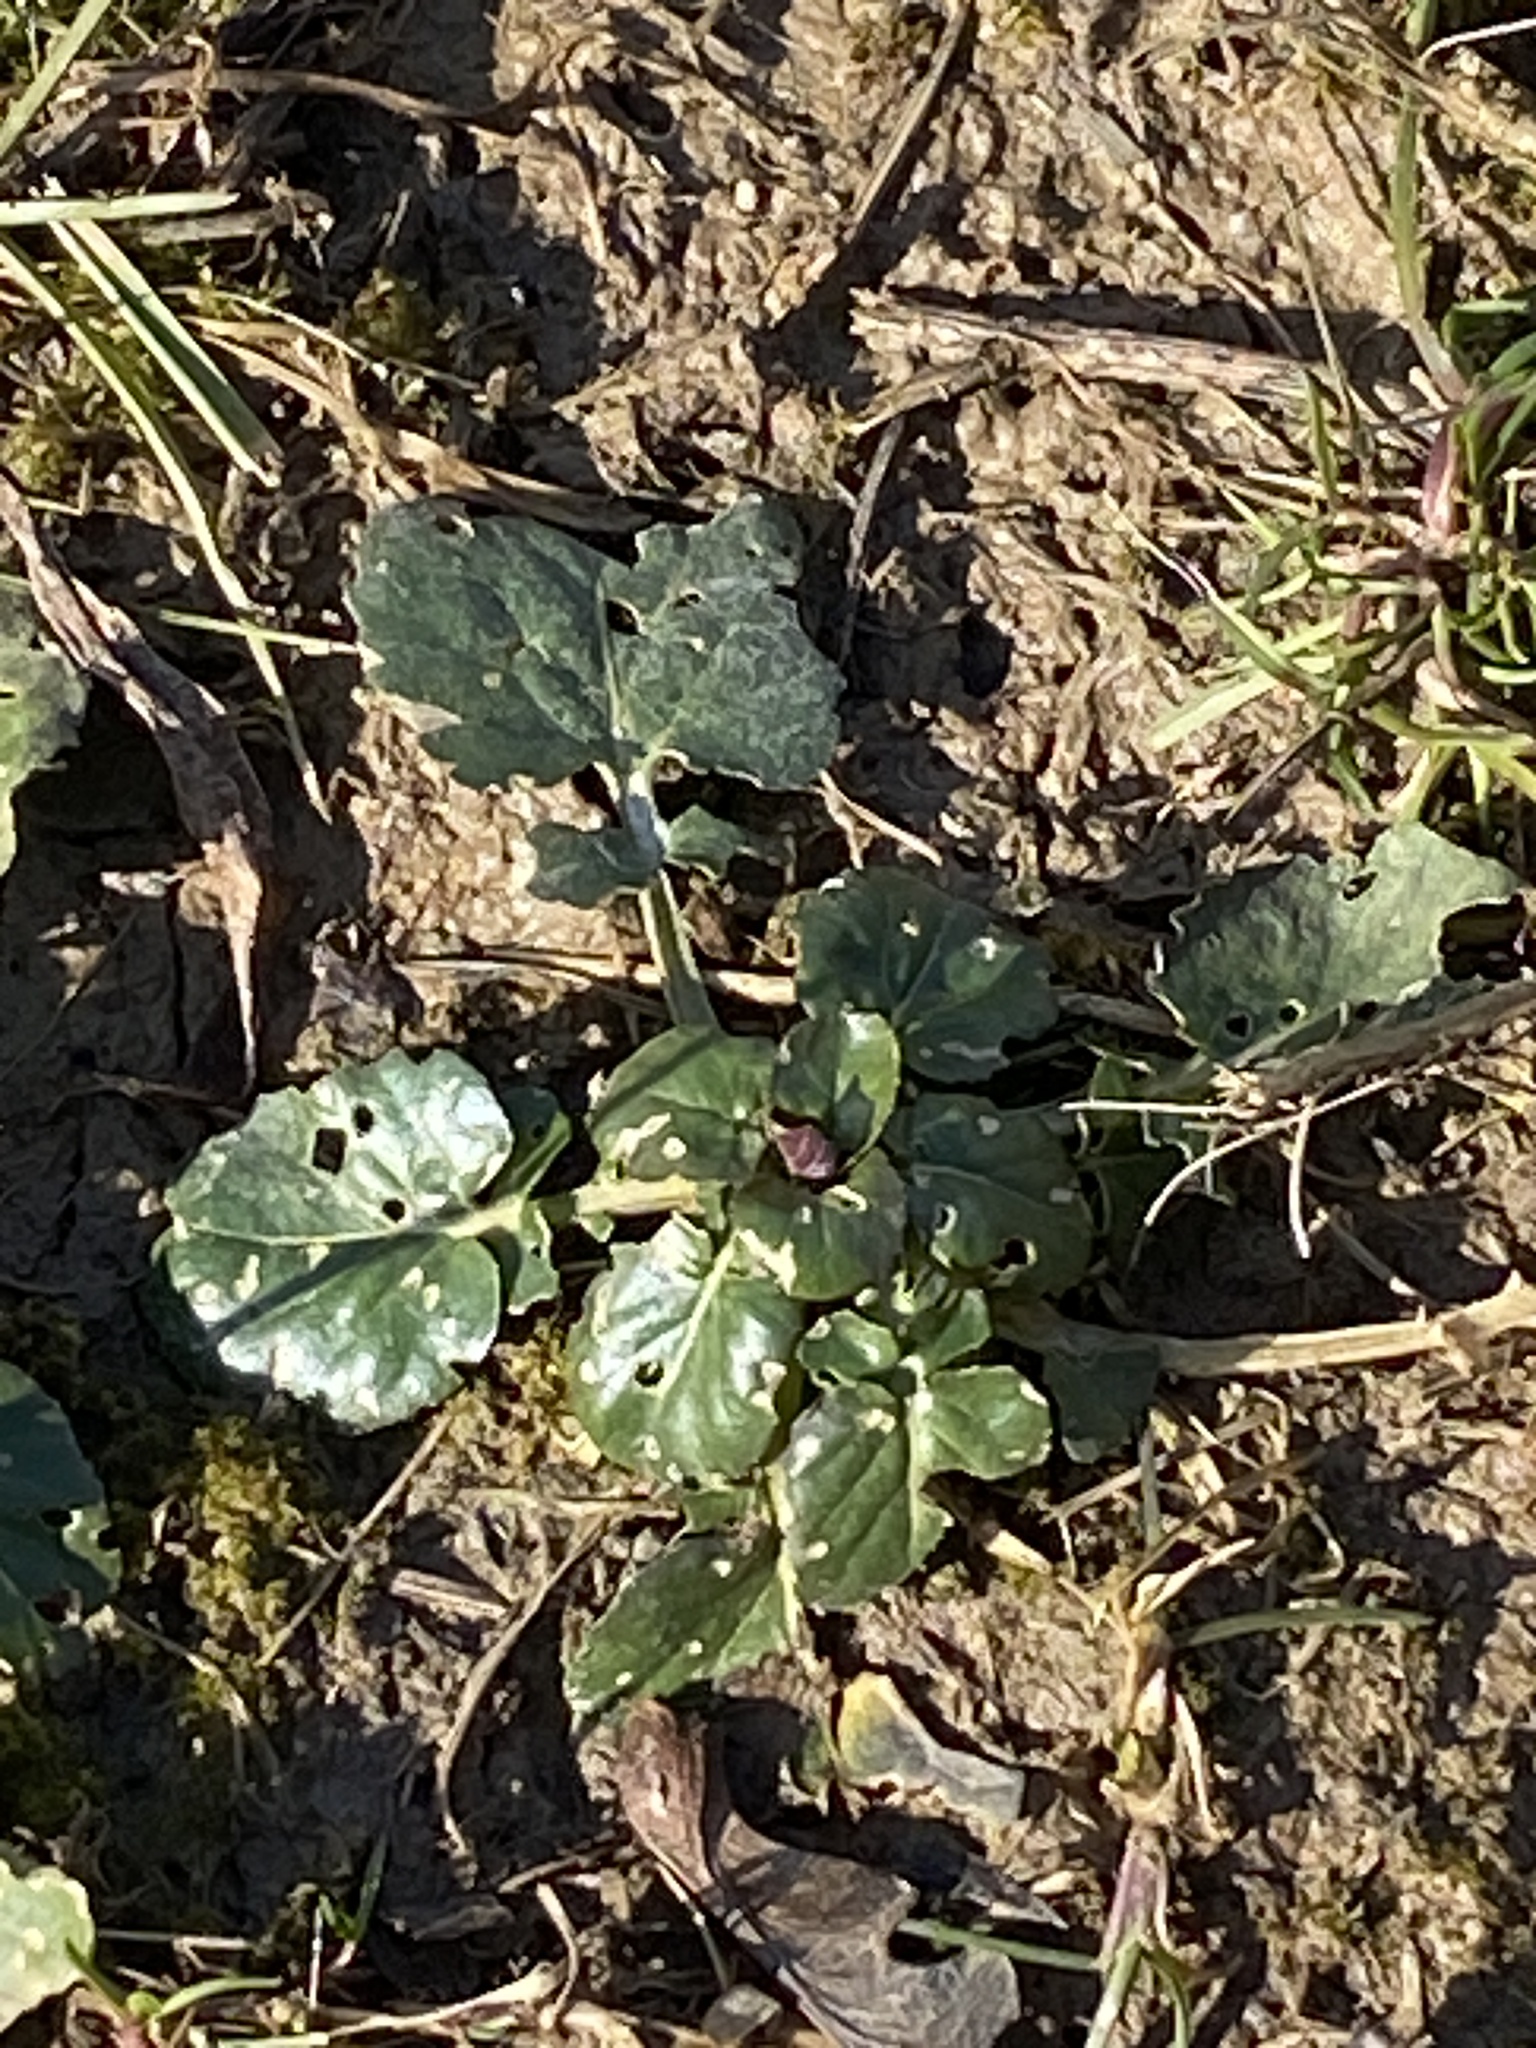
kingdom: Plantae
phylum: Tracheophyta
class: Magnoliopsida
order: Brassicales
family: Brassicaceae
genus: Barbarea
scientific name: Barbarea vulgaris
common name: Cressy-greens
